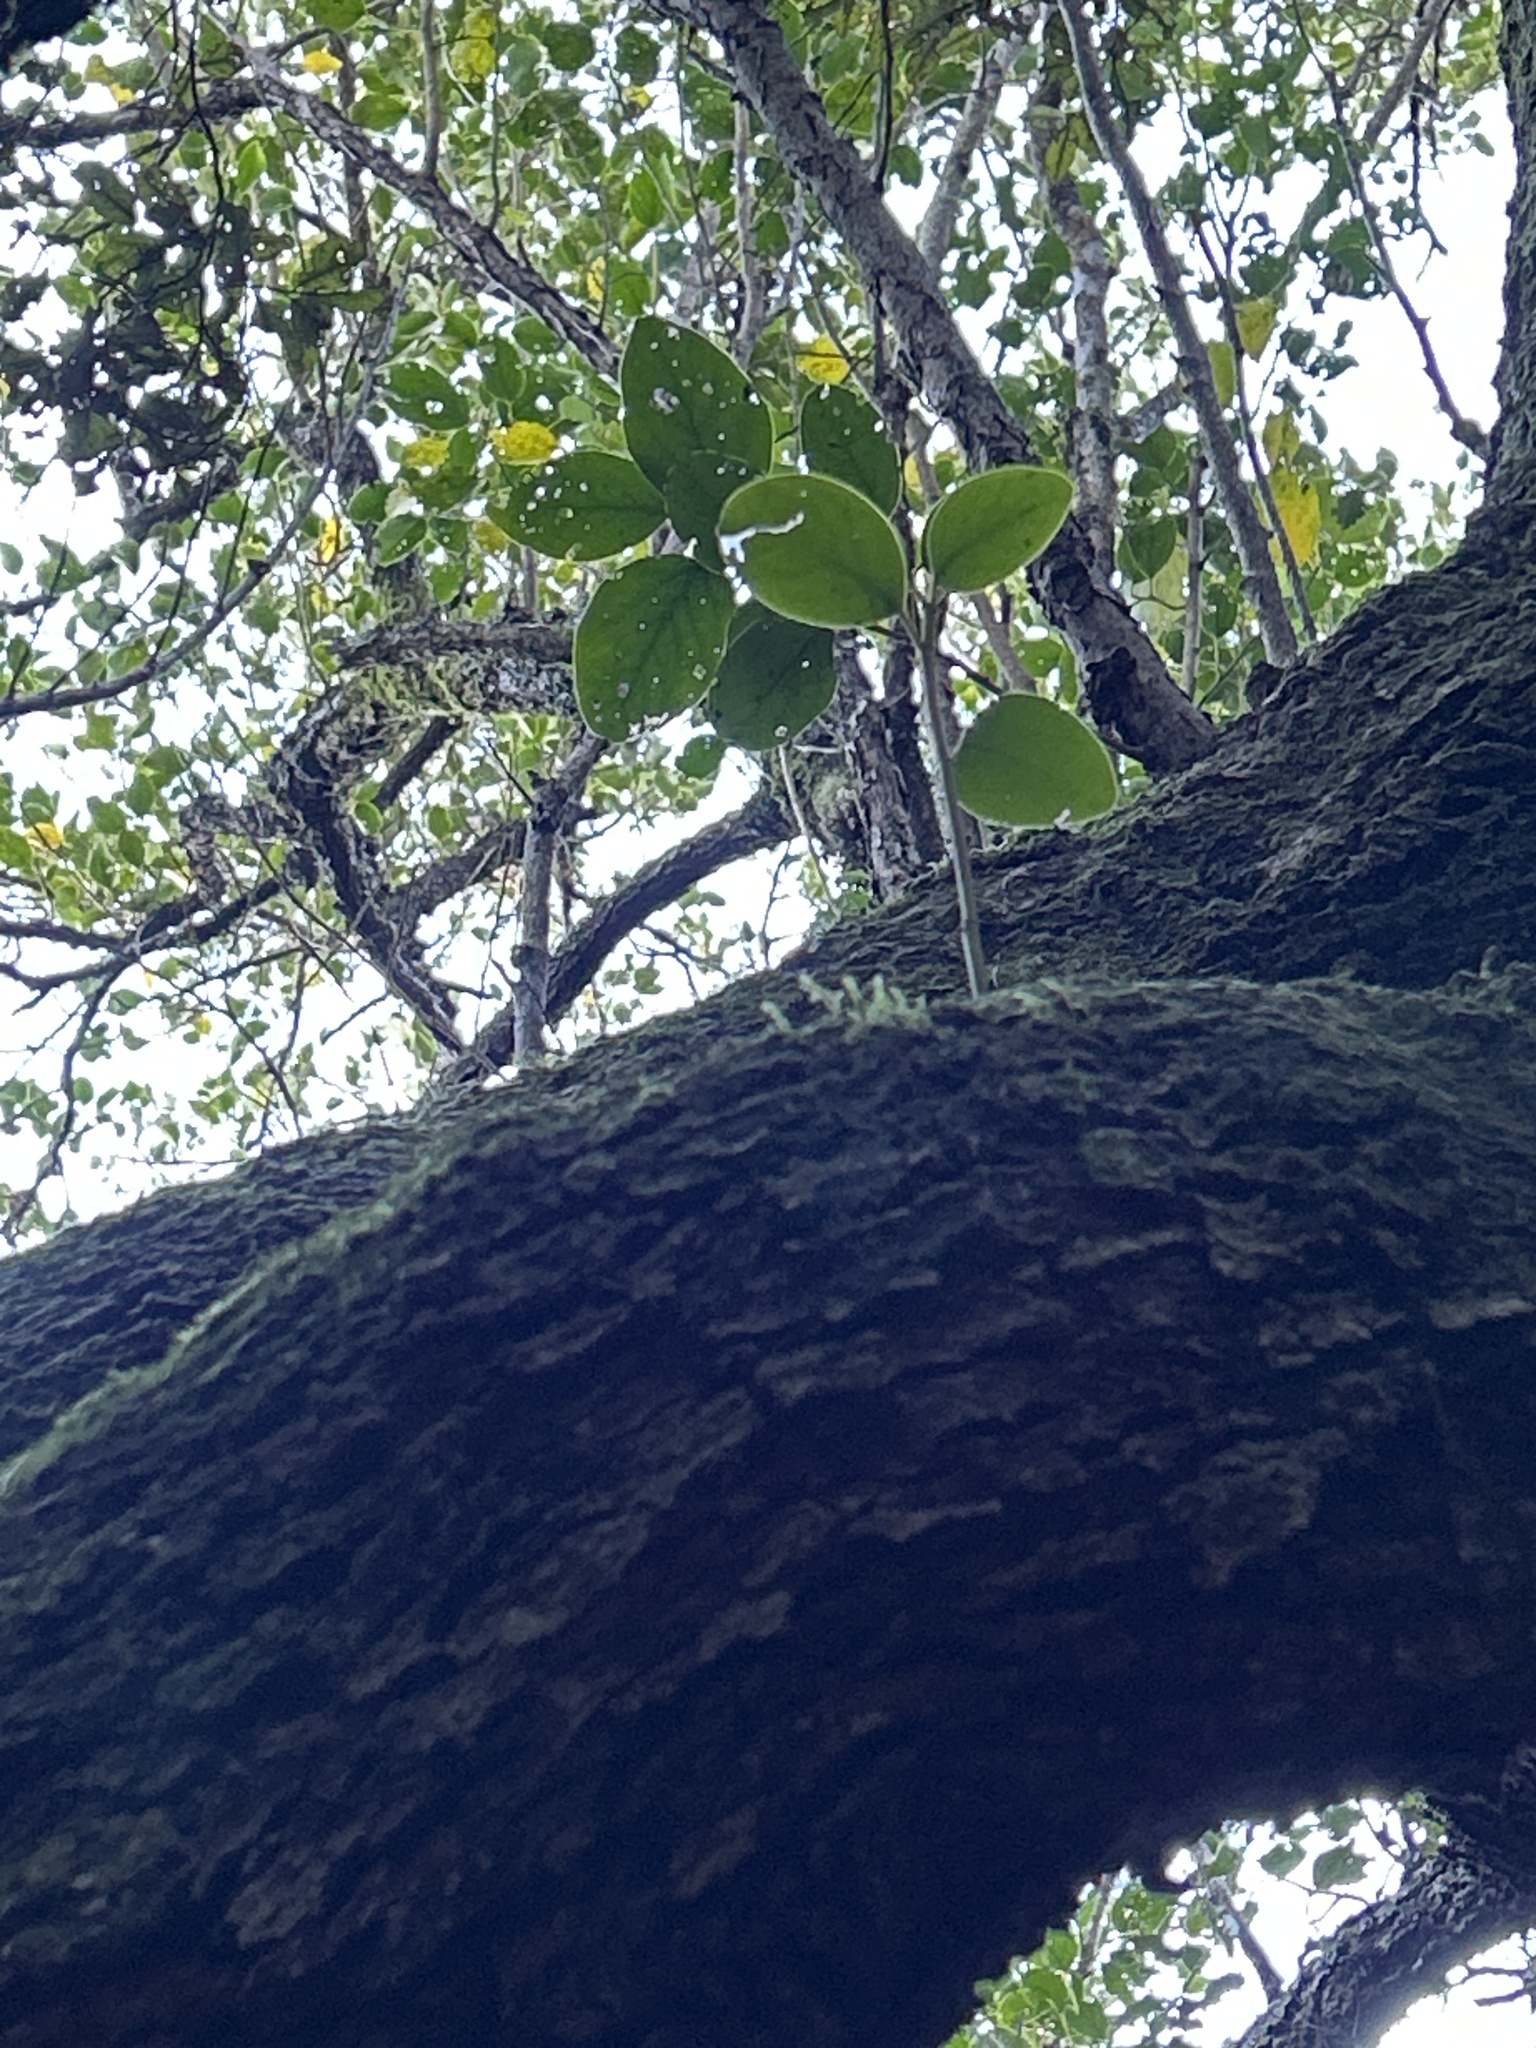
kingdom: Plantae
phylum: Tracheophyta
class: Magnoliopsida
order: Apiales
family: Griseliniaceae
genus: Griselinia
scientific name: Griselinia littoralis
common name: New zealand broadleaf
